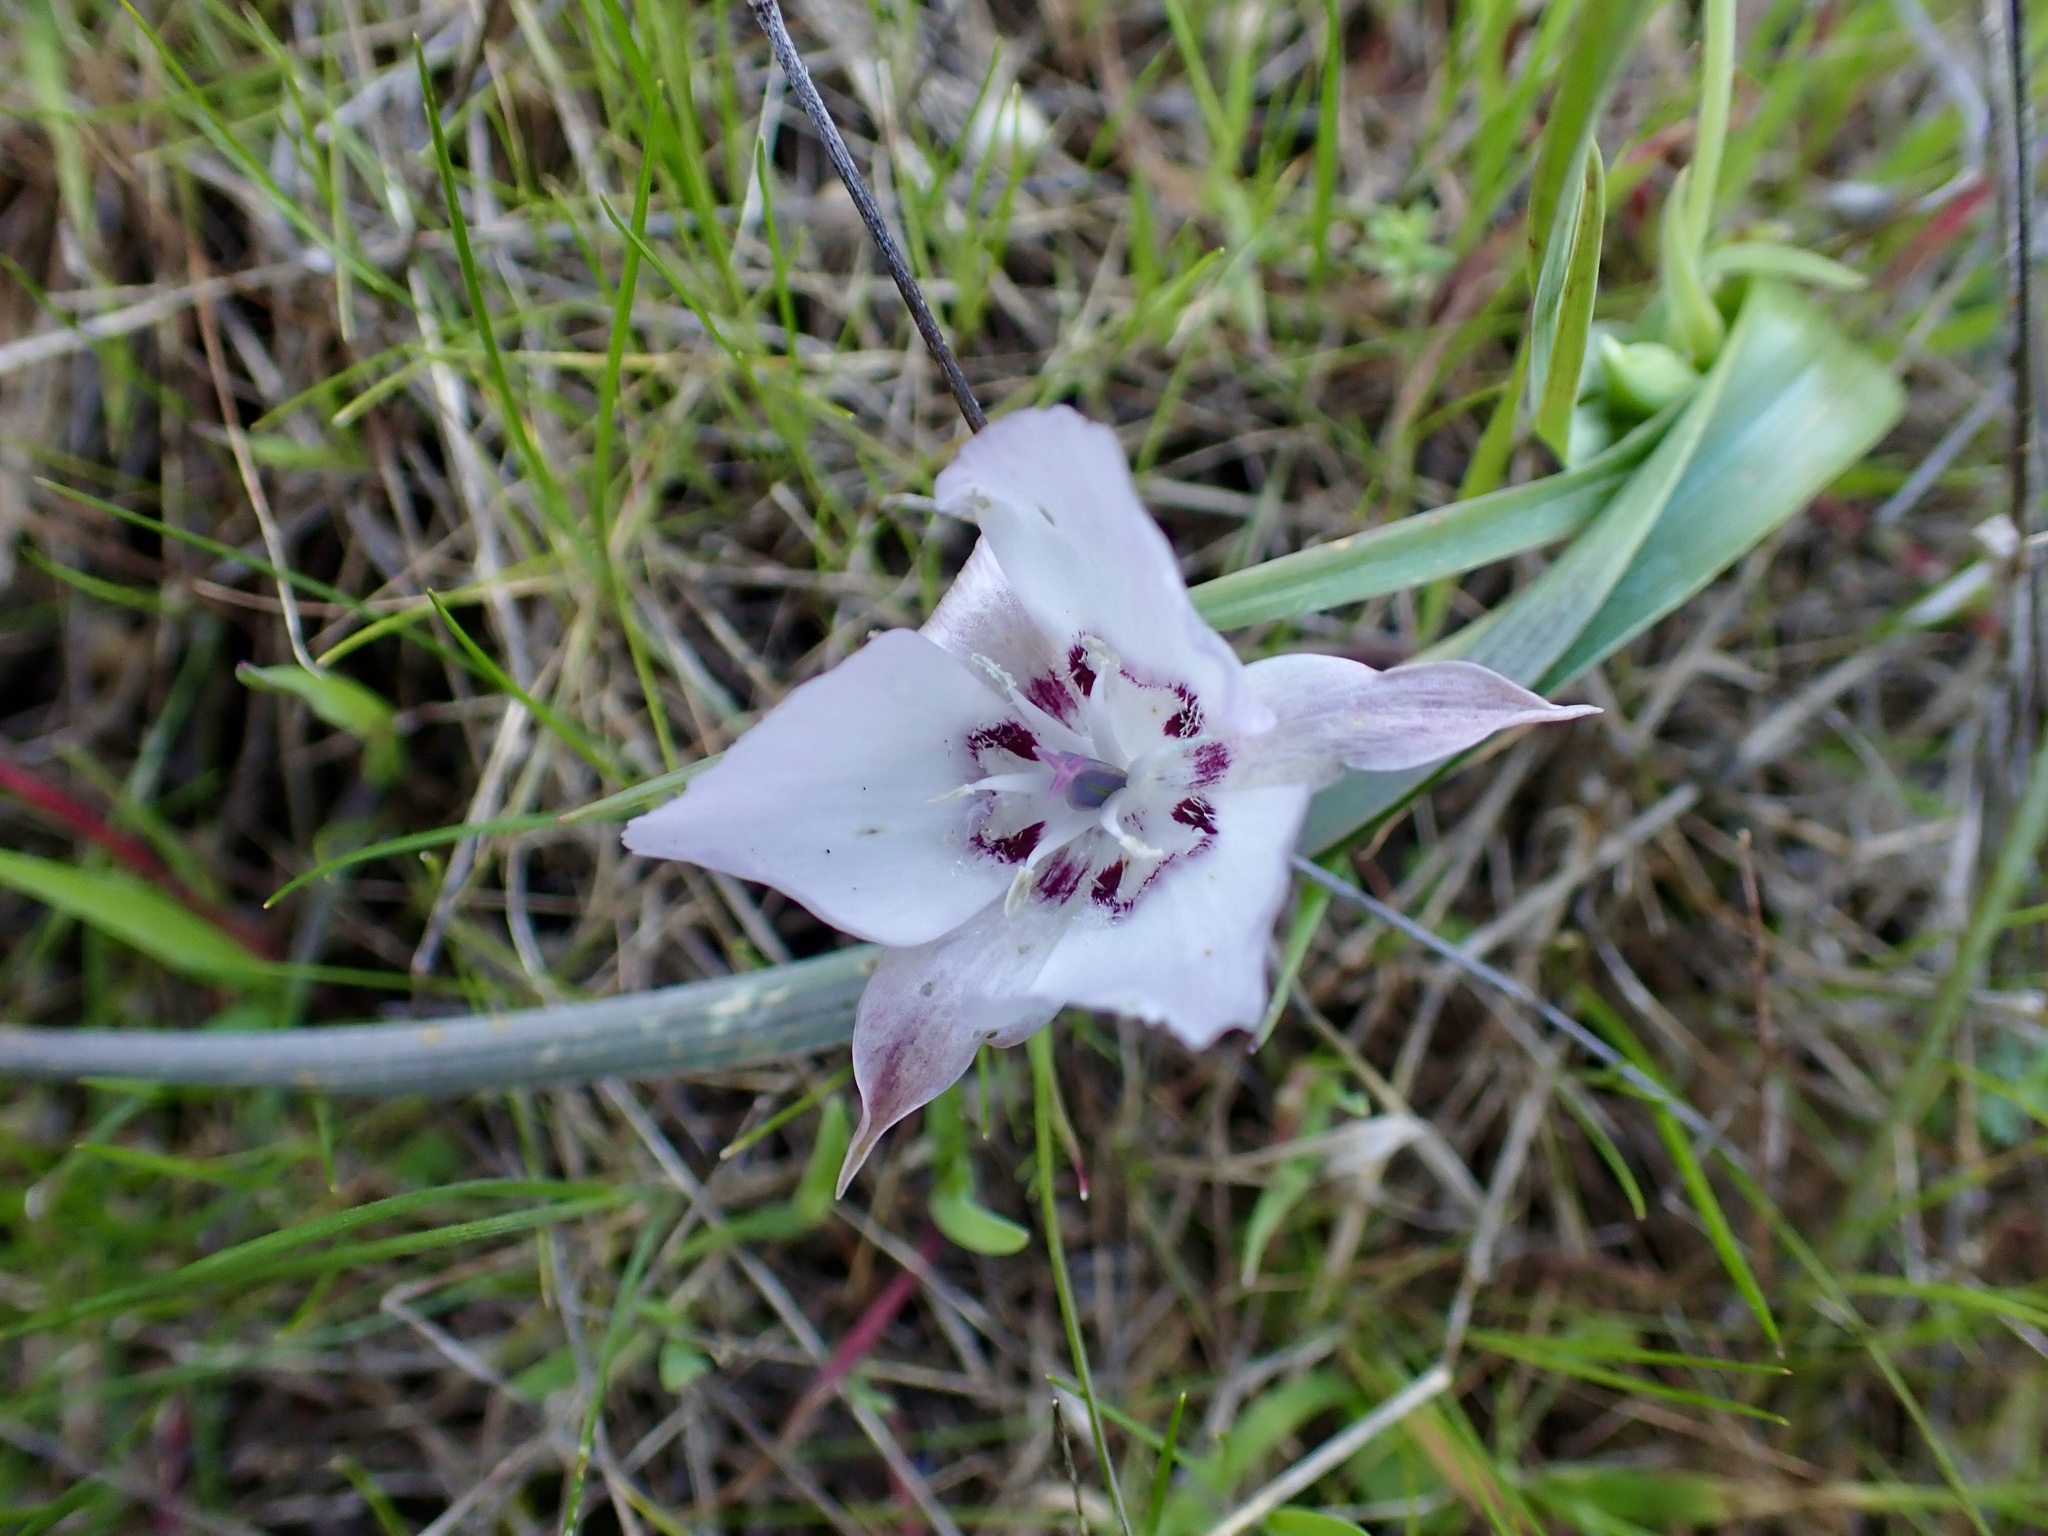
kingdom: Plantae
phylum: Tracheophyta
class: Liliopsida
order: Liliales
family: Liliaceae
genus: Calochortus
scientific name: Calochortus umbellatus
